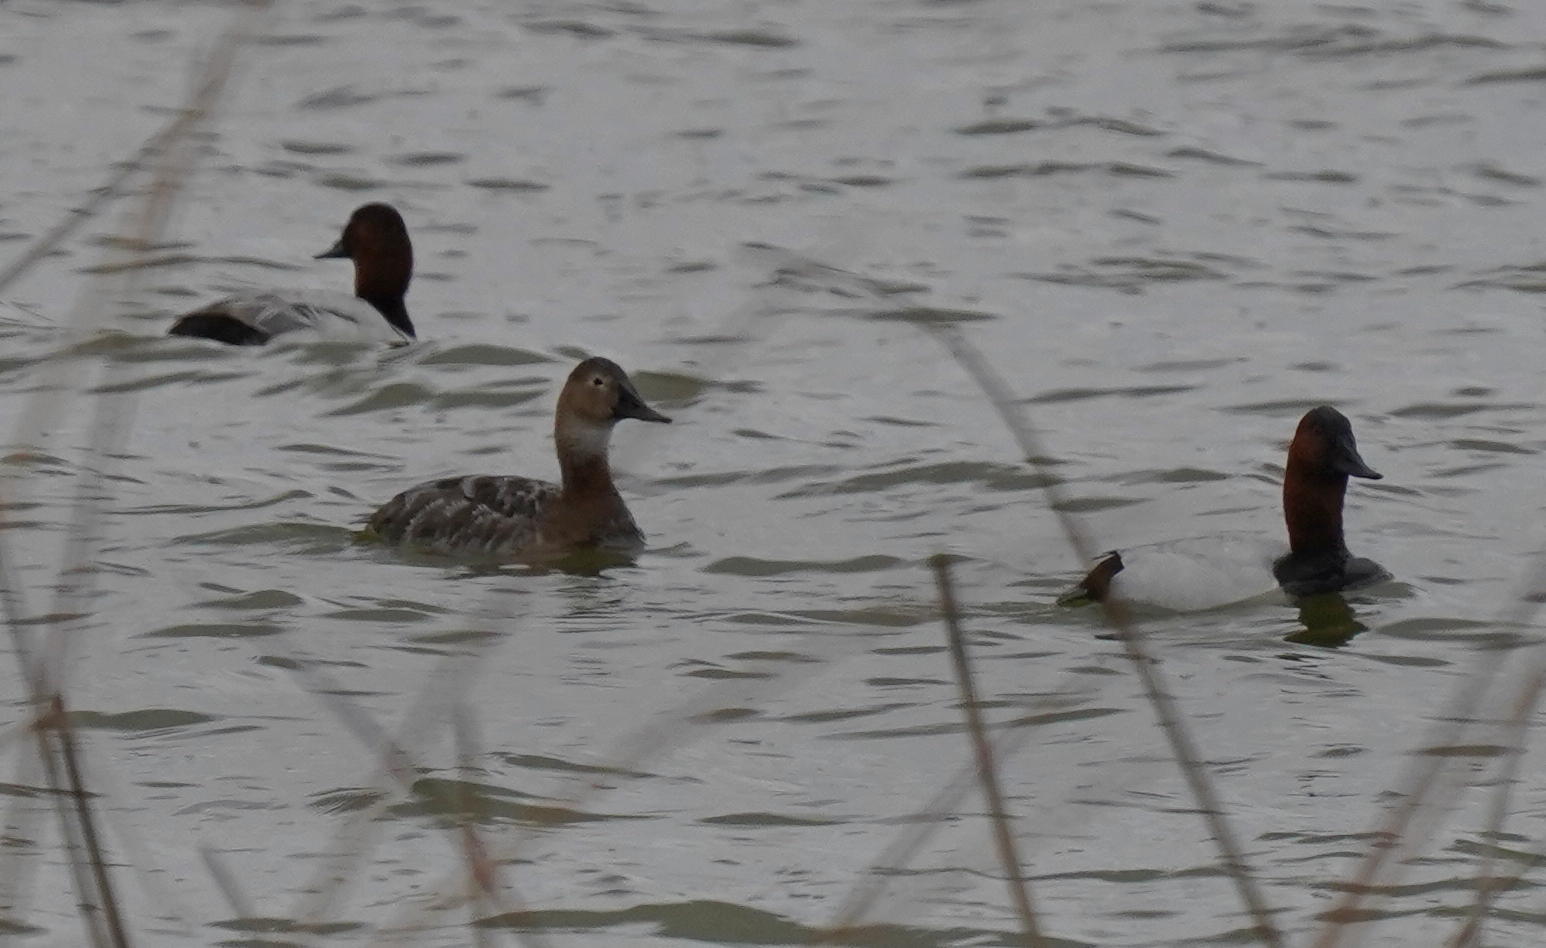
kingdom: Animalia
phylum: Chordata
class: Aves
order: Anseriformes
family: Anatidae
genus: Aythya
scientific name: Aythya valisineria
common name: Canvasback
